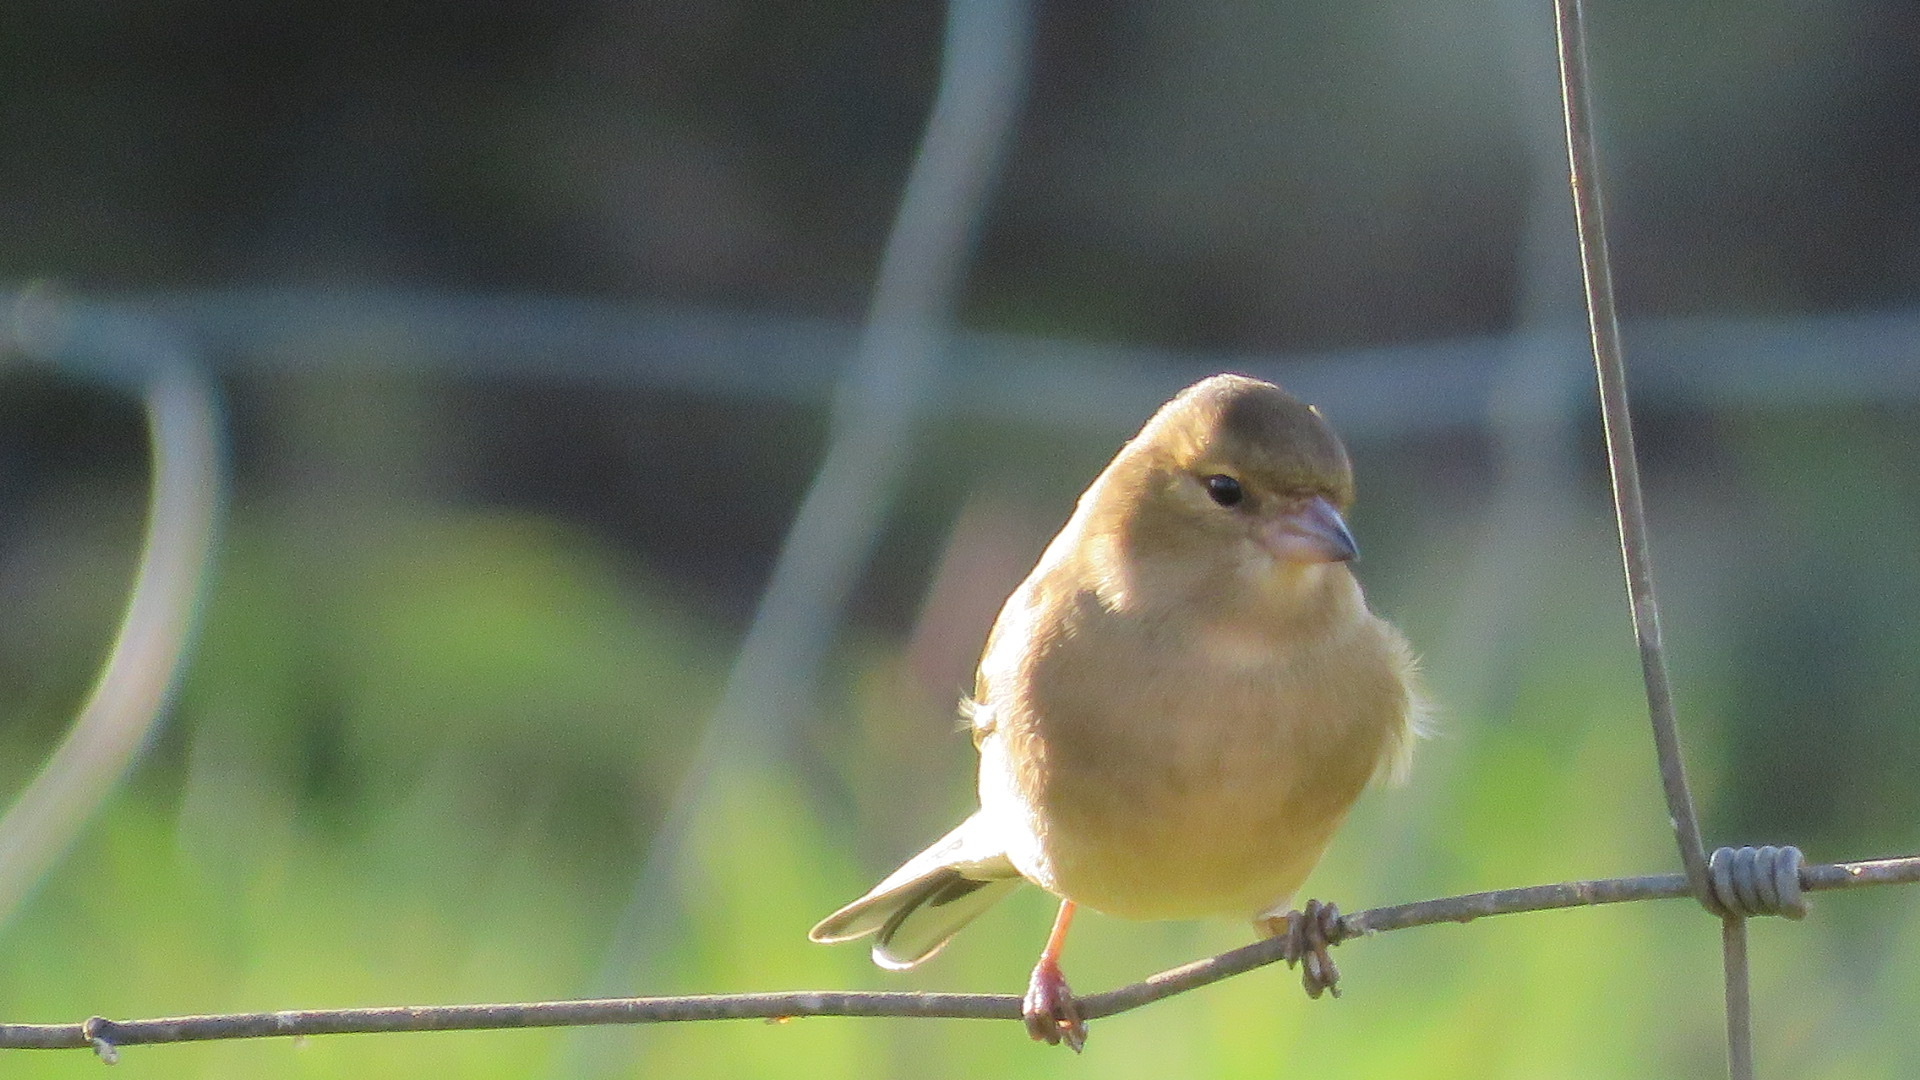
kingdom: Animalia
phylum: Chordata
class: Aves
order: Passeriformes
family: Fringillidae
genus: Fringilla
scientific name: Fringilla coelebs
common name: Common chaffinch
